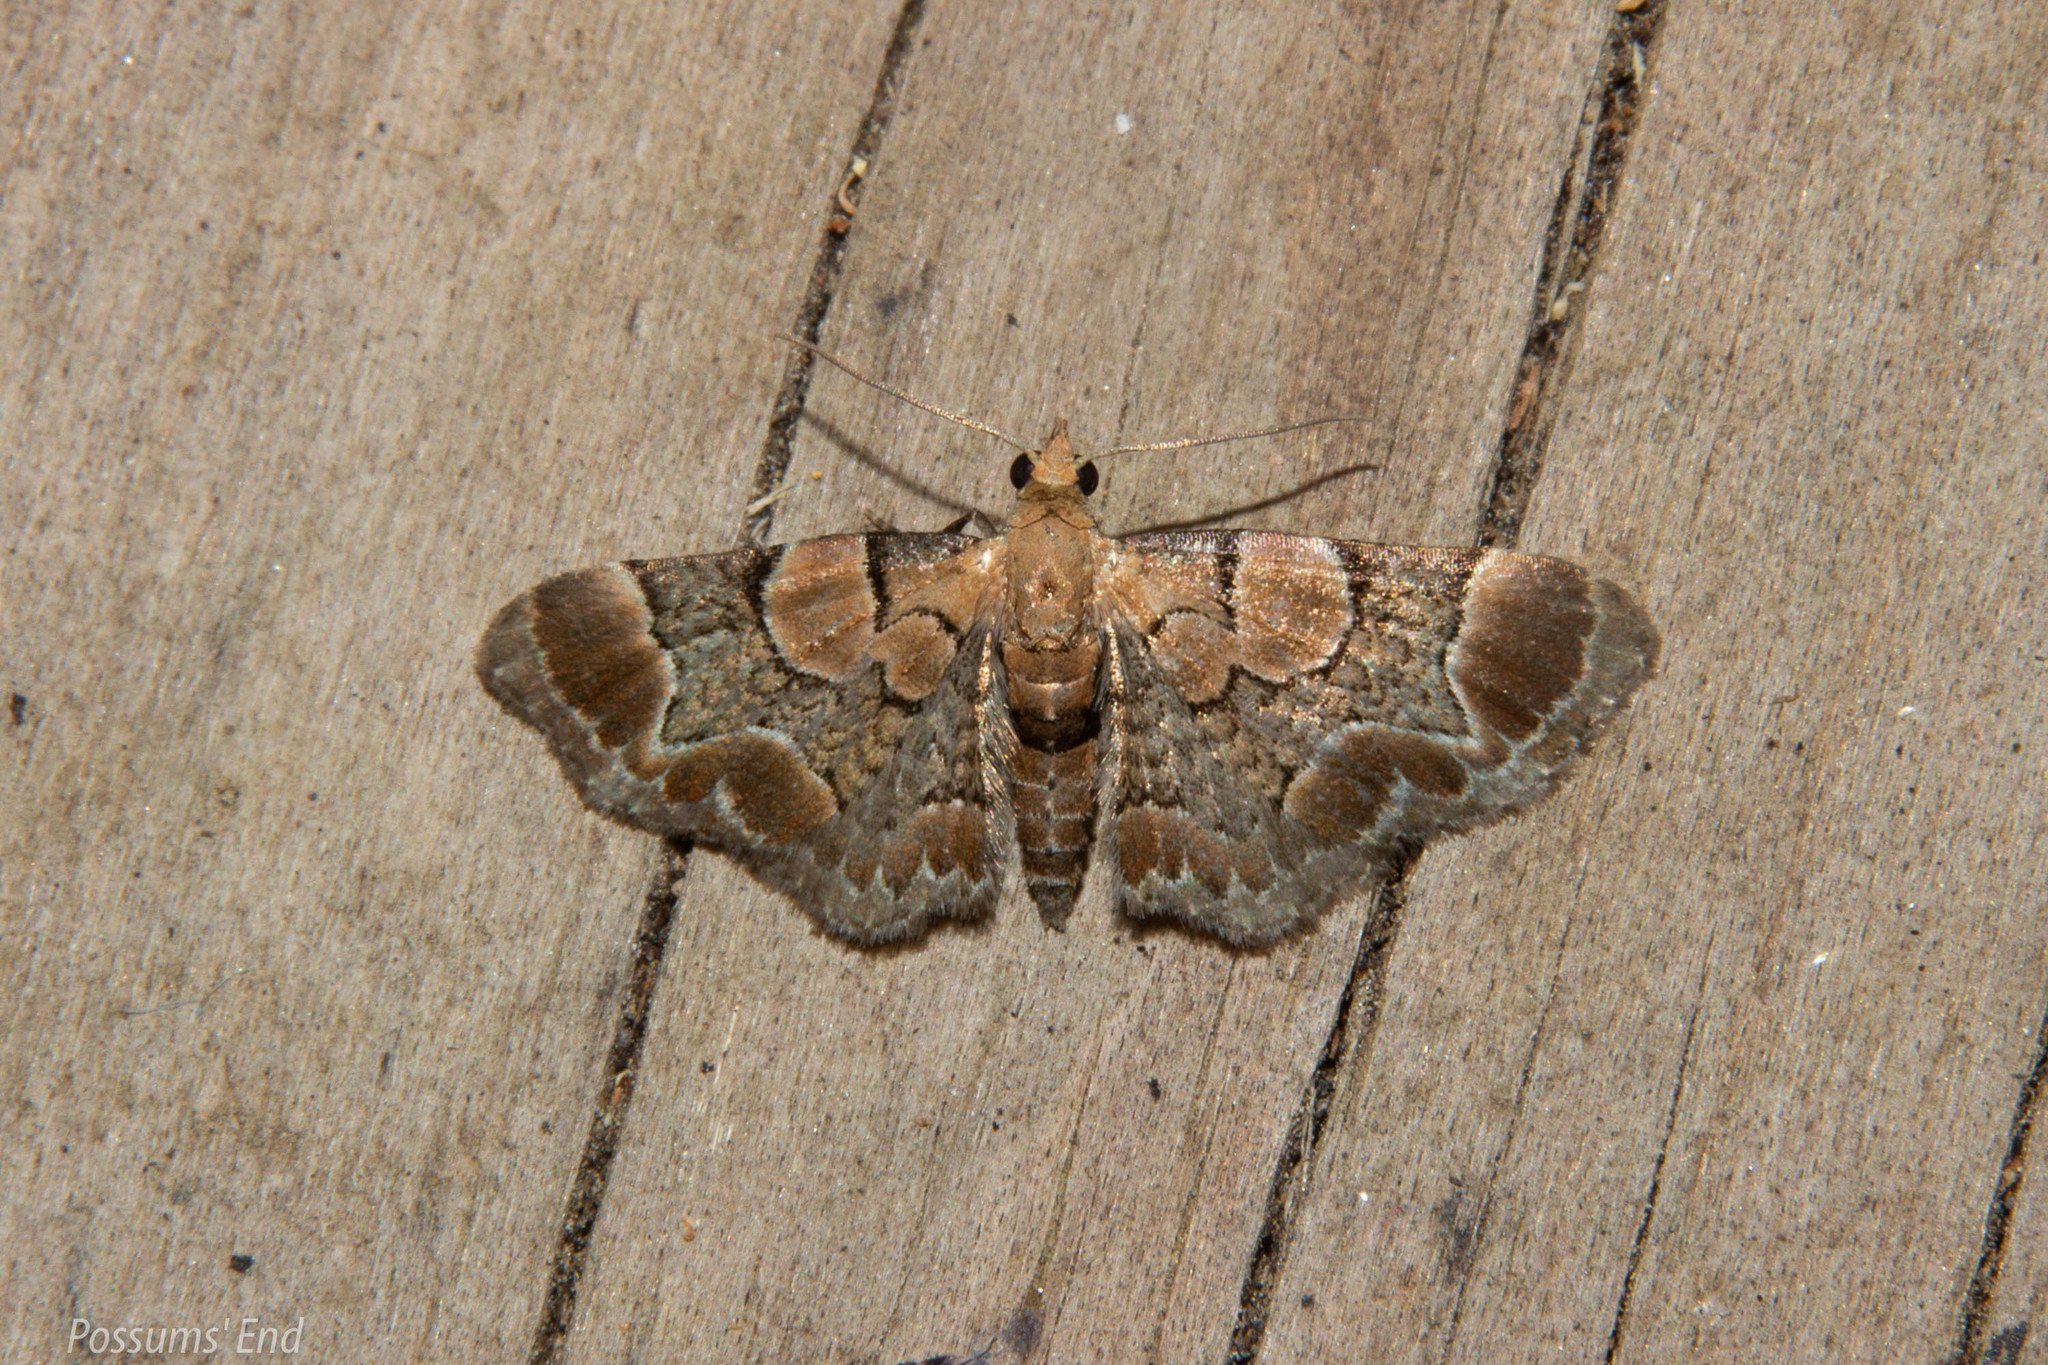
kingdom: Animalia
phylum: Arthropoda
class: Insecta
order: Lepidoptera
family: Geometridae
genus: Chloroclystis
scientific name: Chloroclystis
